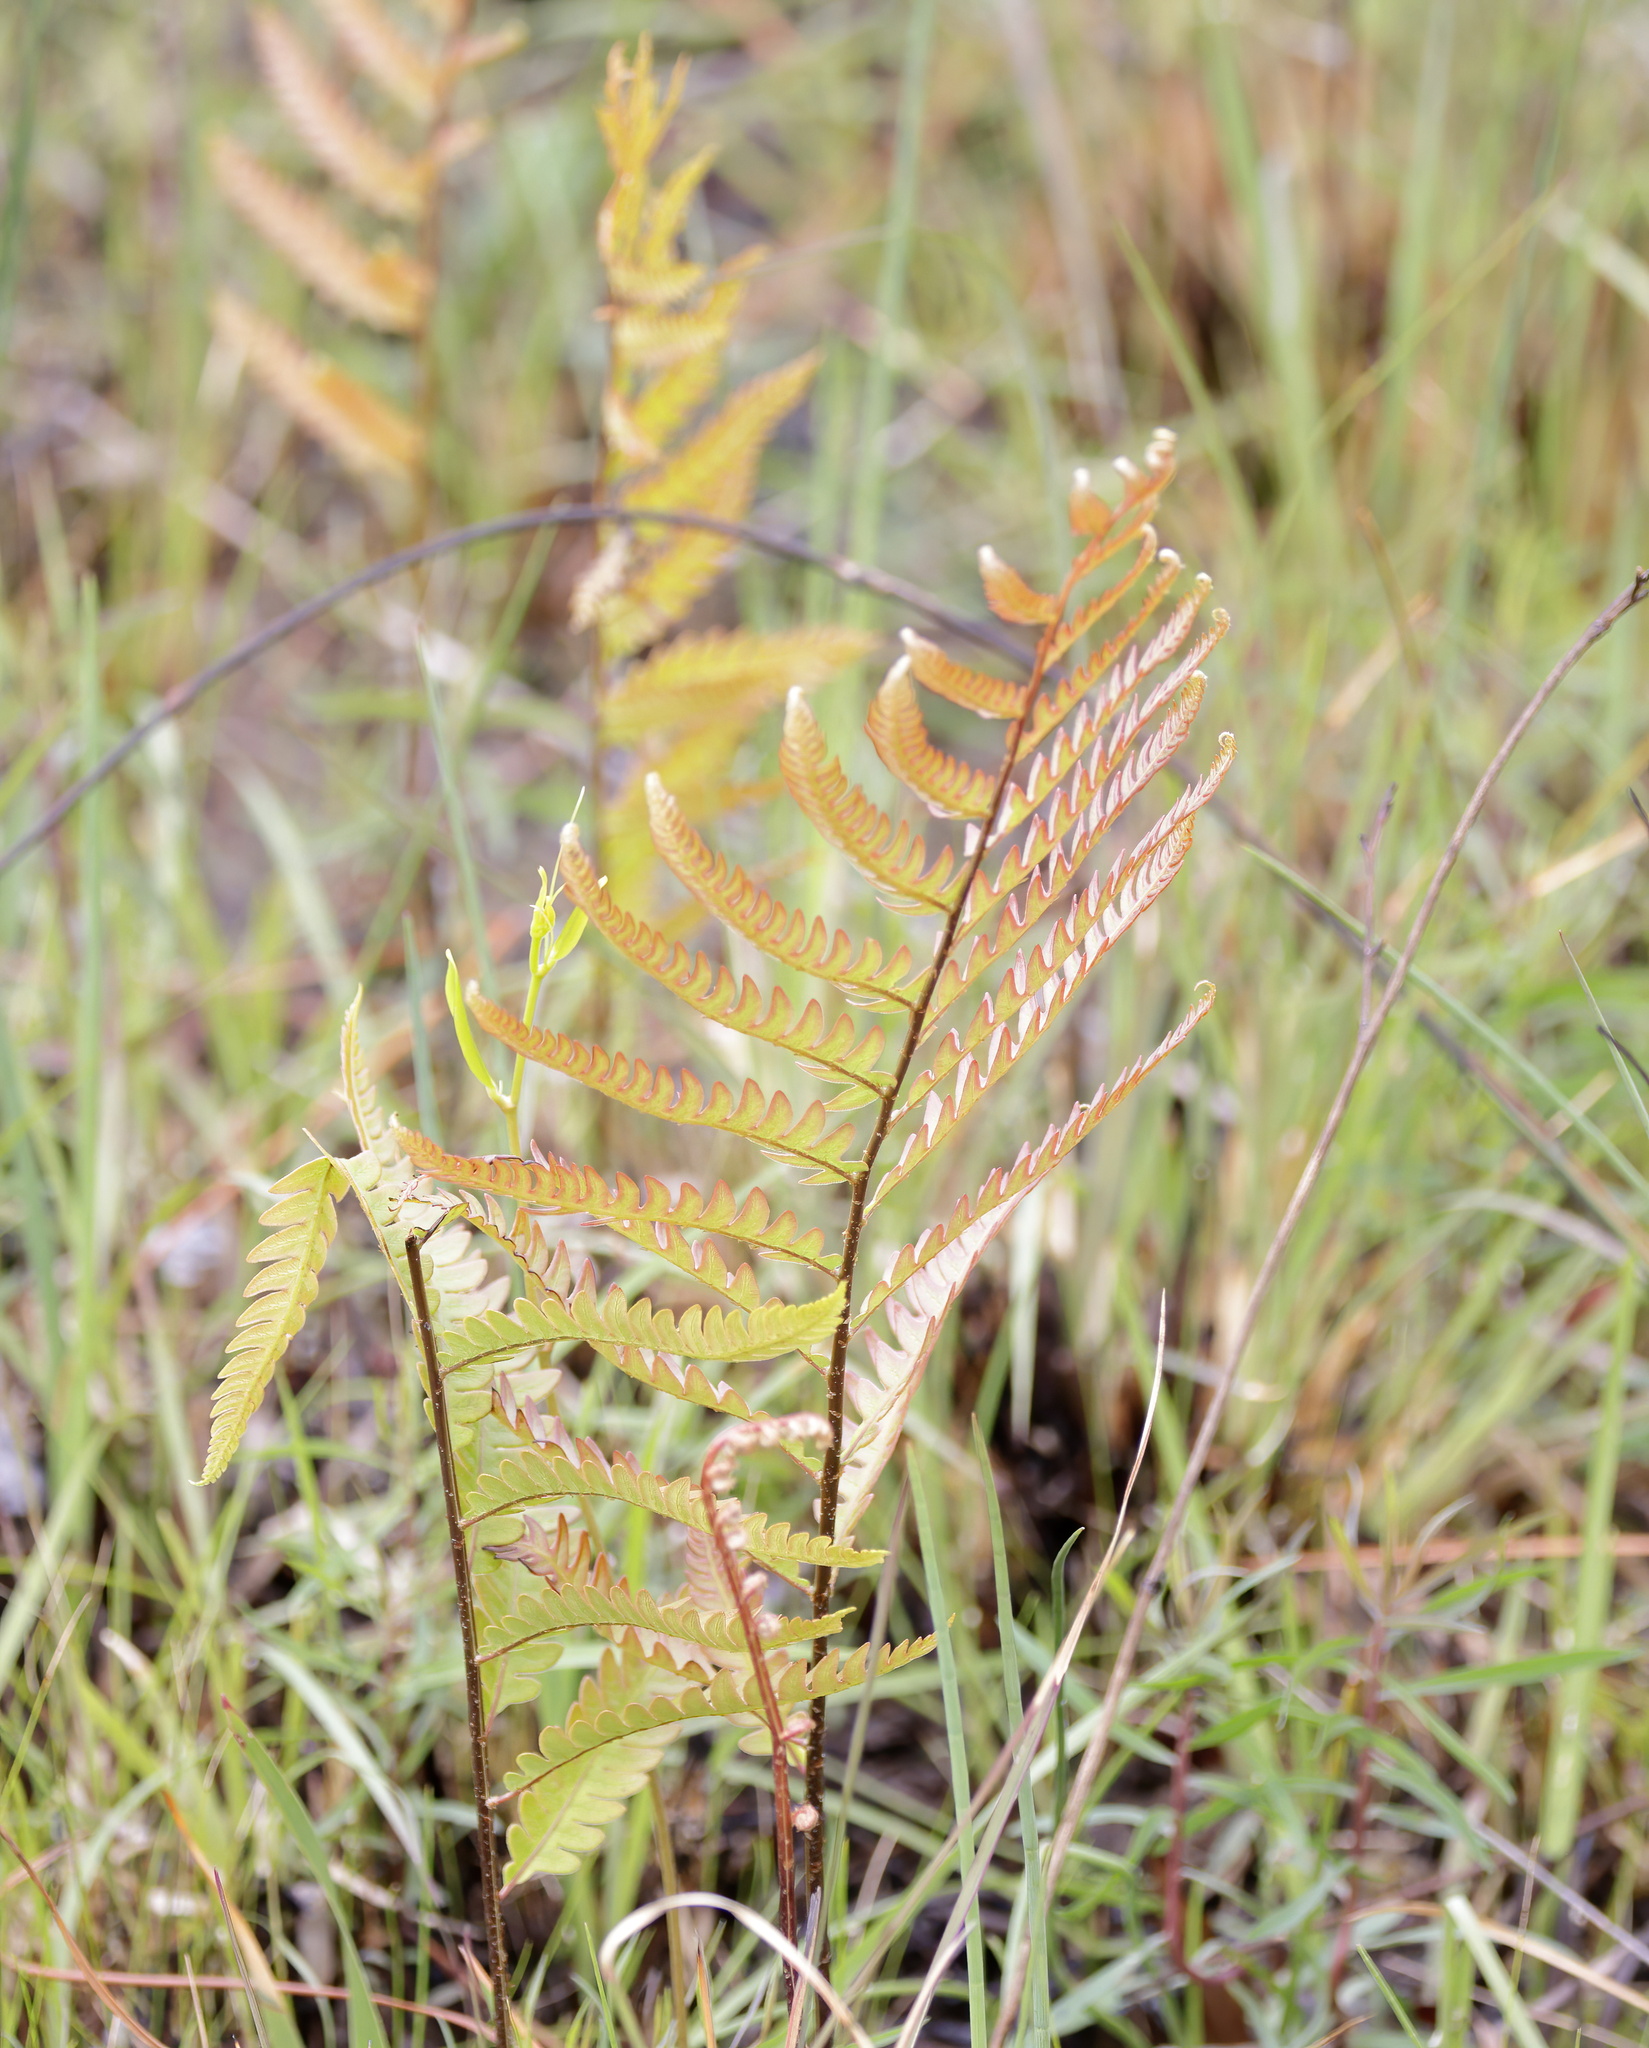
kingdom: Plantae
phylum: Tracheophyta
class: Polypodiopsida
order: Polypodiales
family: Blechnaceae
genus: Anchistea
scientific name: Anchistea virginica
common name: Virginia chain fern
